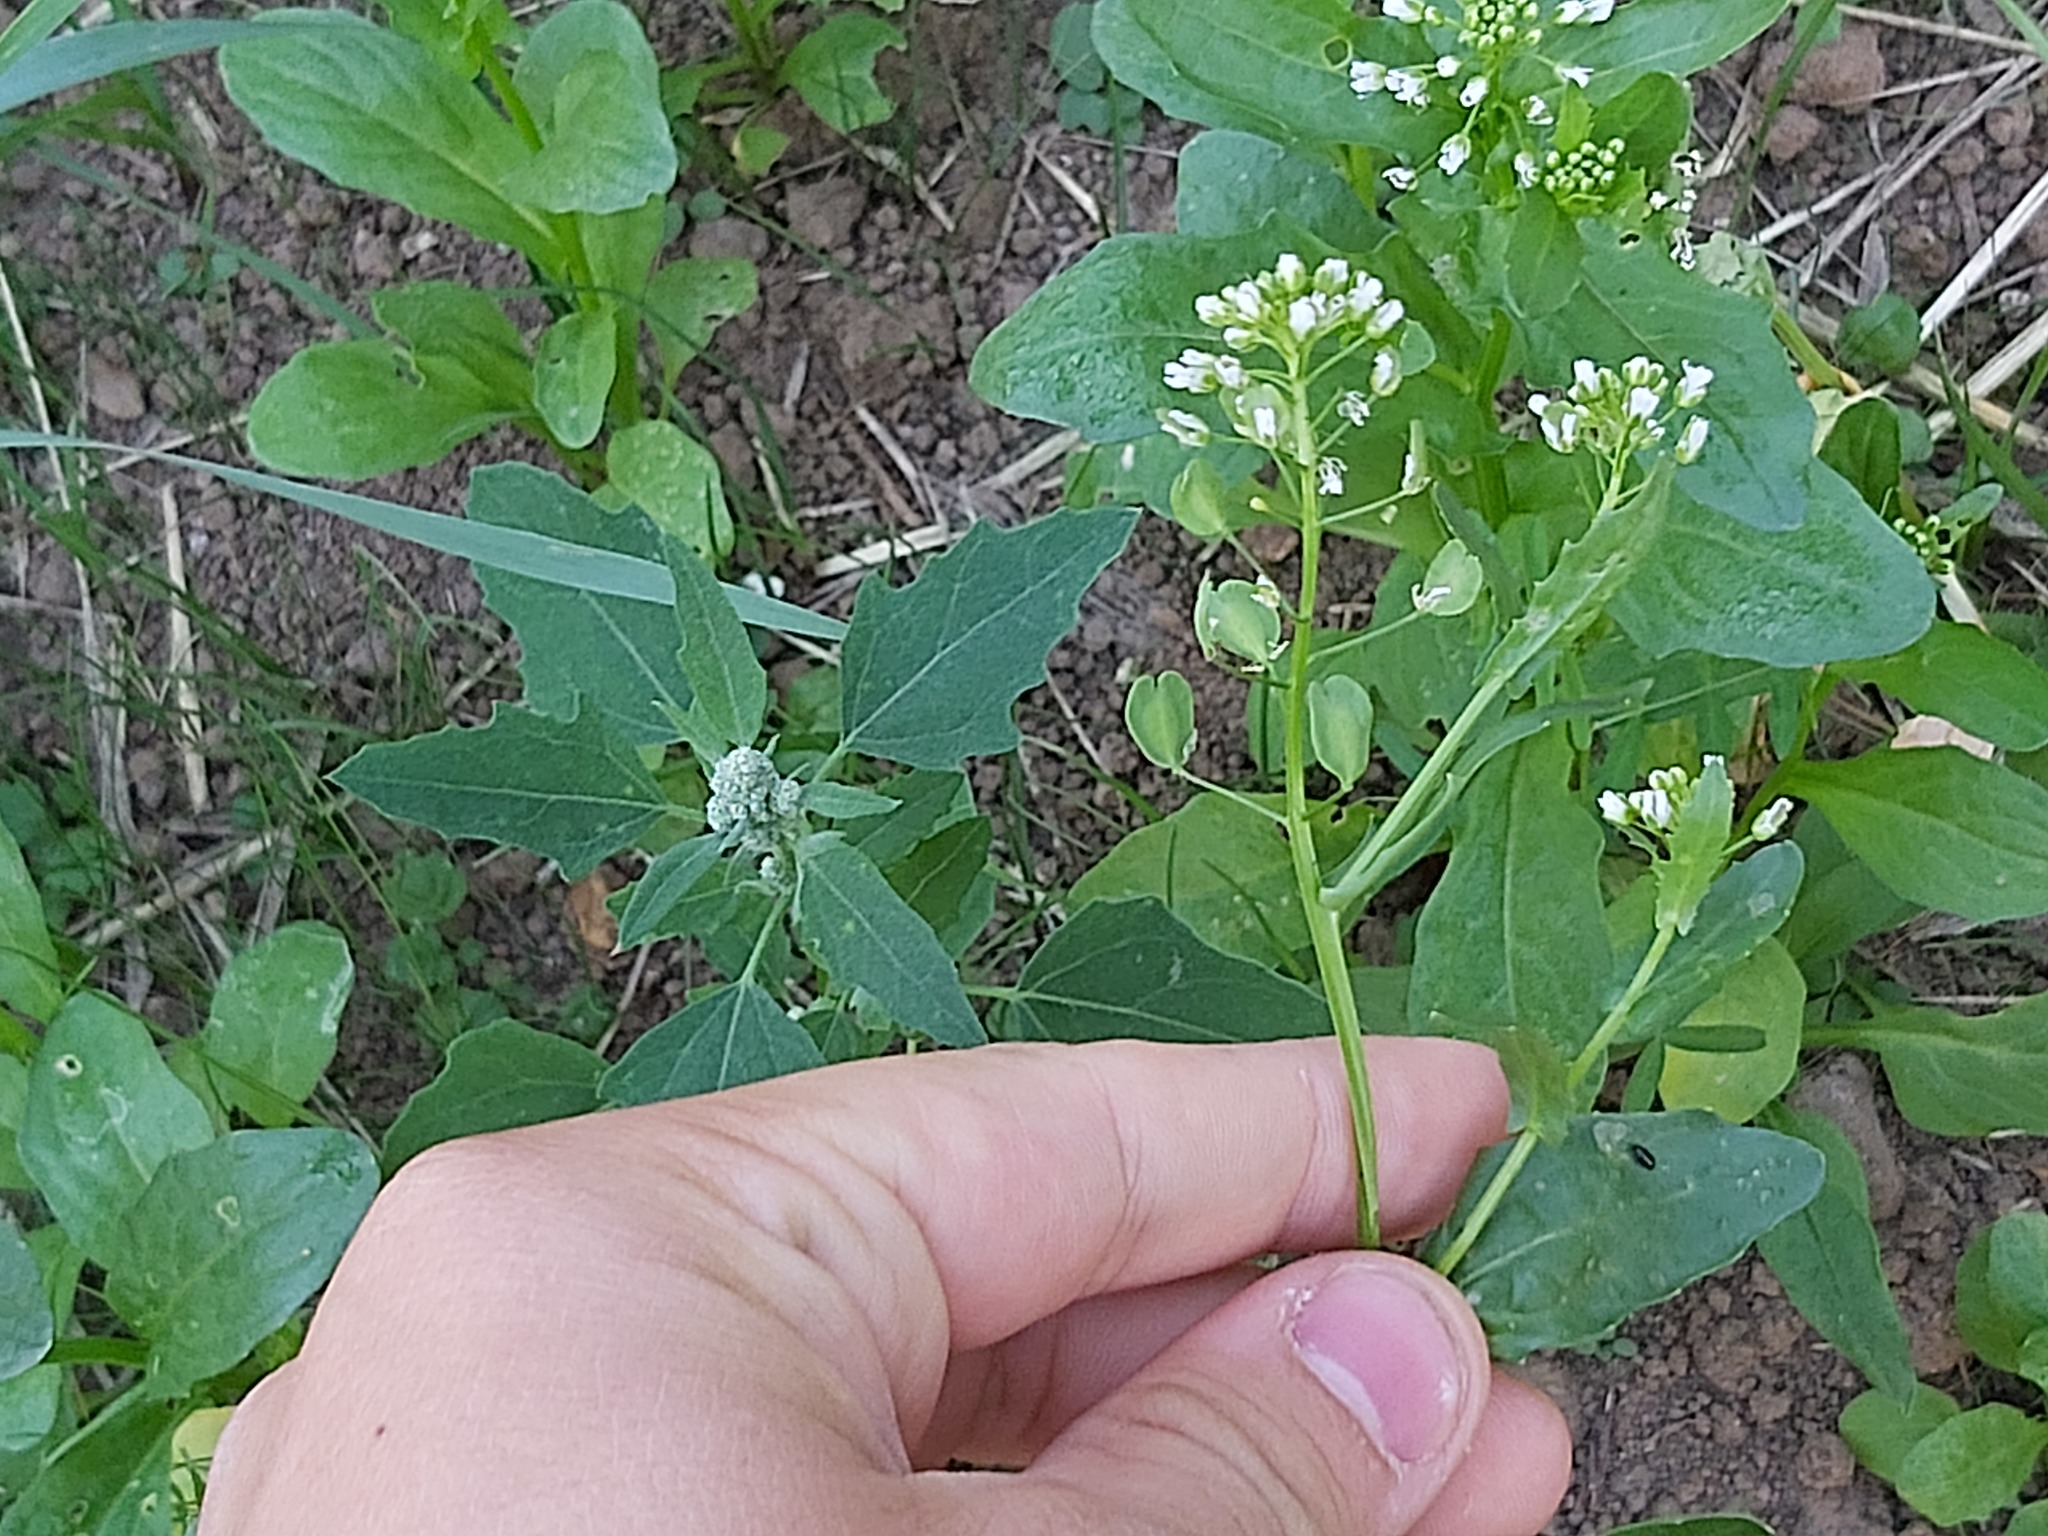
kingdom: Plantae
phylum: Tracheophyta
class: Magnoliopsida
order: Brassicales
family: Brassicaceae
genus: Thlaspi
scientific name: Thlaspi arvense
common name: Field pennycress
